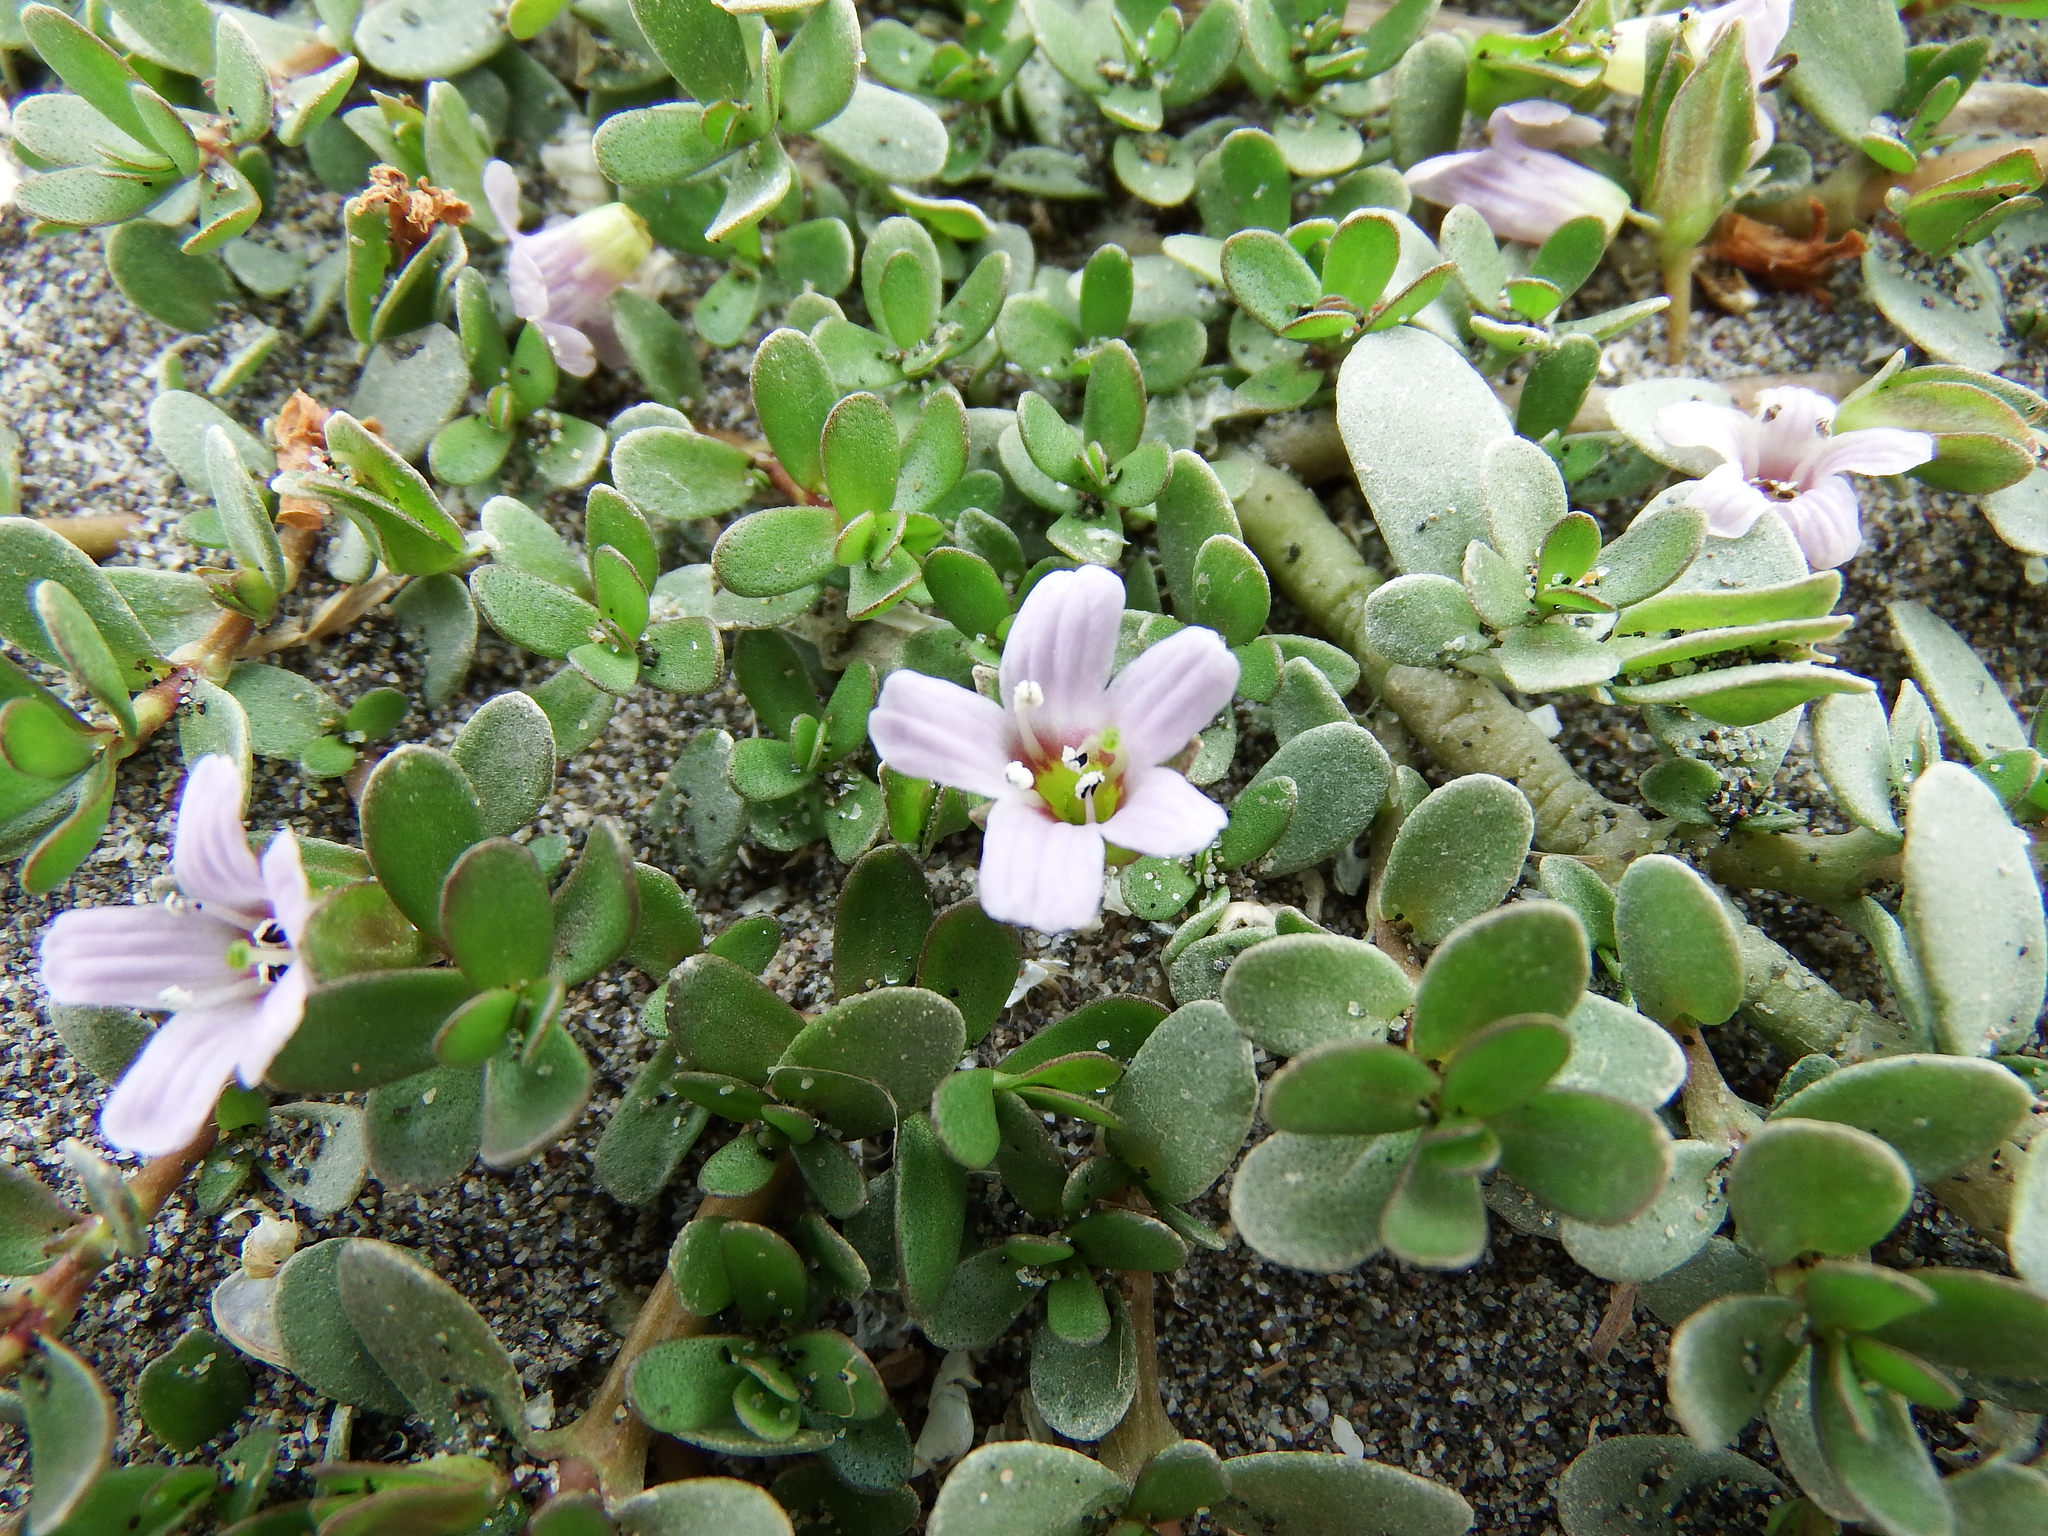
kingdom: Plantae
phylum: Tracheophyta
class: Magnoliopsida
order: Lamiales
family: Plantaginaceae
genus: Bacopa
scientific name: Bacopa monnieri
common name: Indian-pennywort
